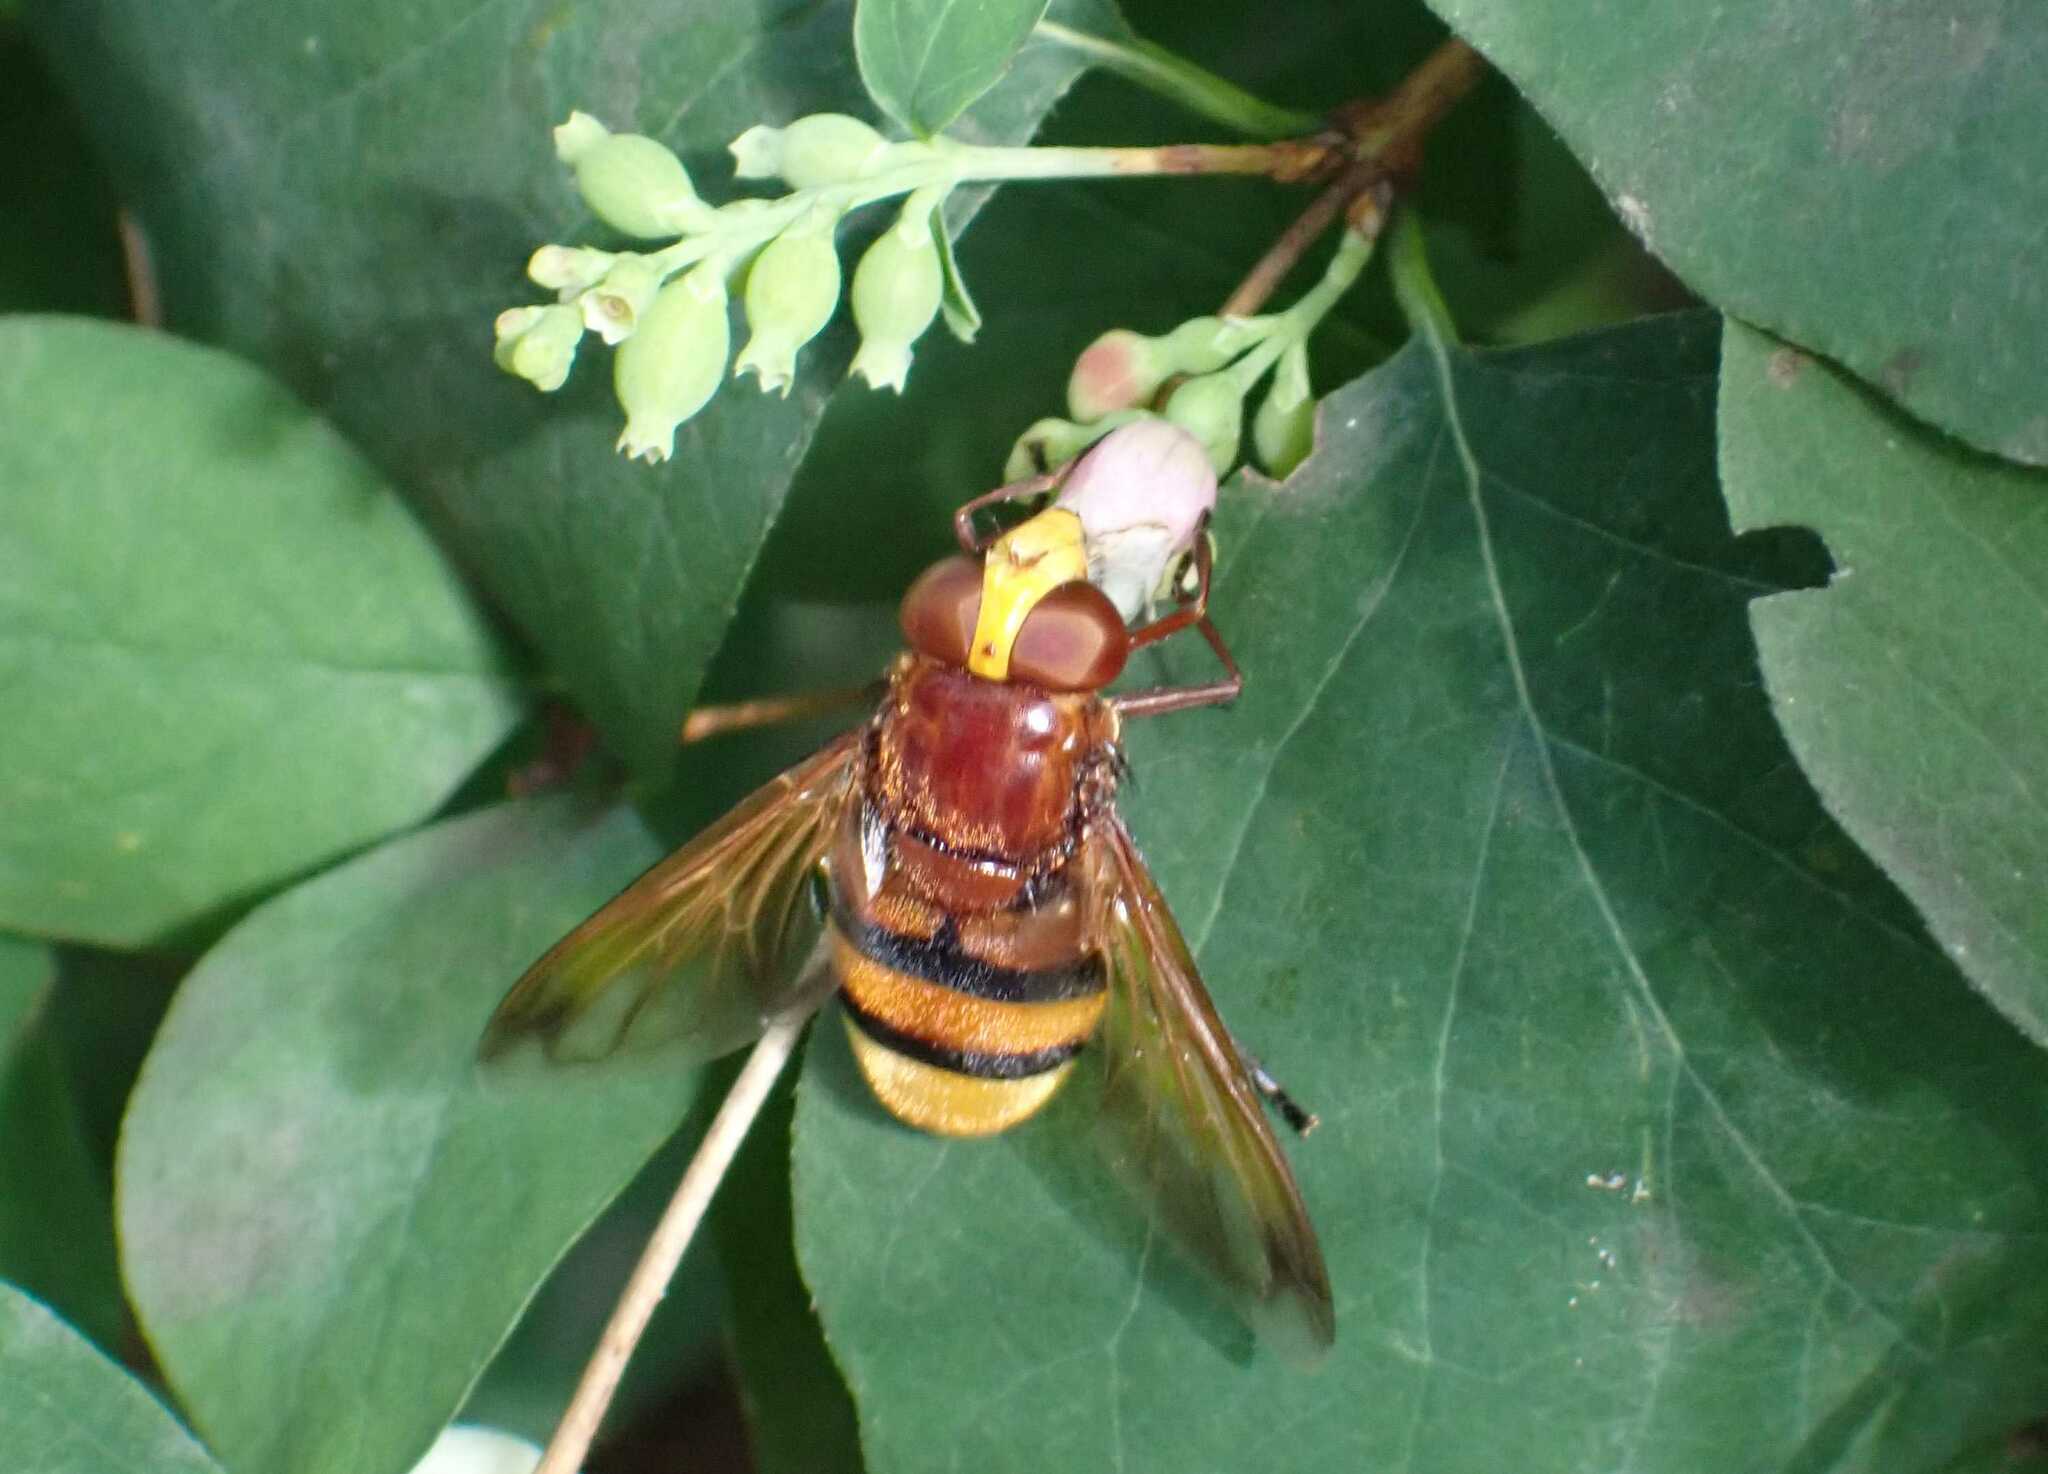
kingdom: Animalia
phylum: Arthropoda
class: Insecta
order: Diptera
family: Syrphidae
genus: Volucella
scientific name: Volucella zonaria
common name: Hornet hoverfly
